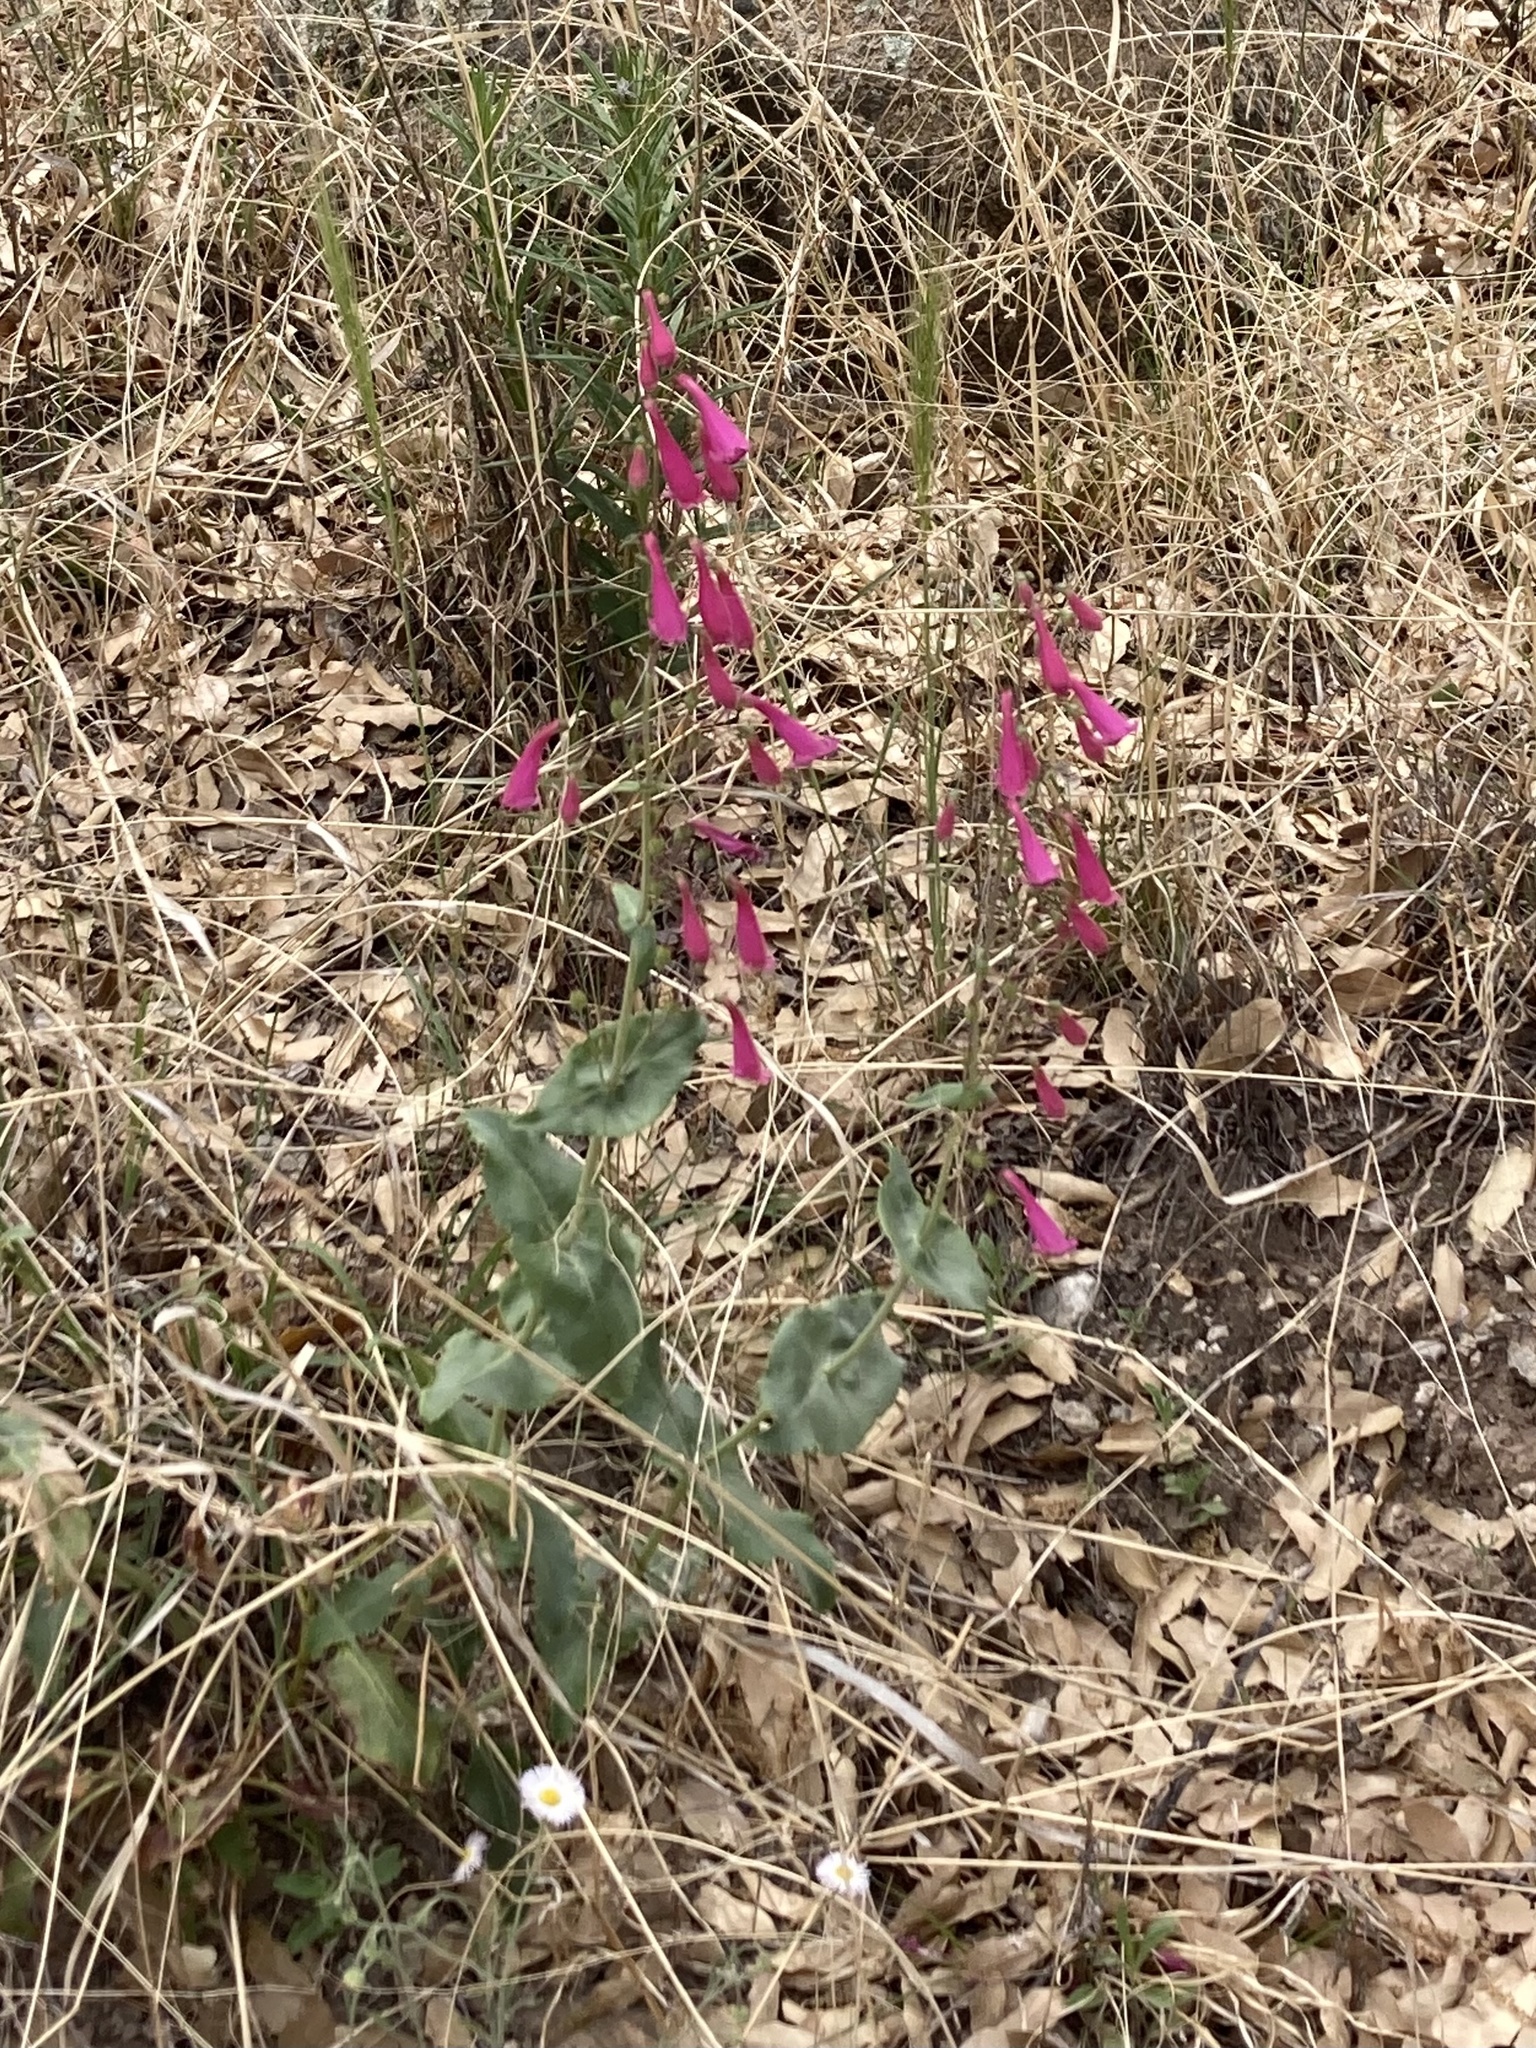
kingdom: Plantae
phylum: Tracheophyta
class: Magnoliopsida
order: Lamiales
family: Plantaginaceae
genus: Penstemon
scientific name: Penstemon pseudospectabilis
